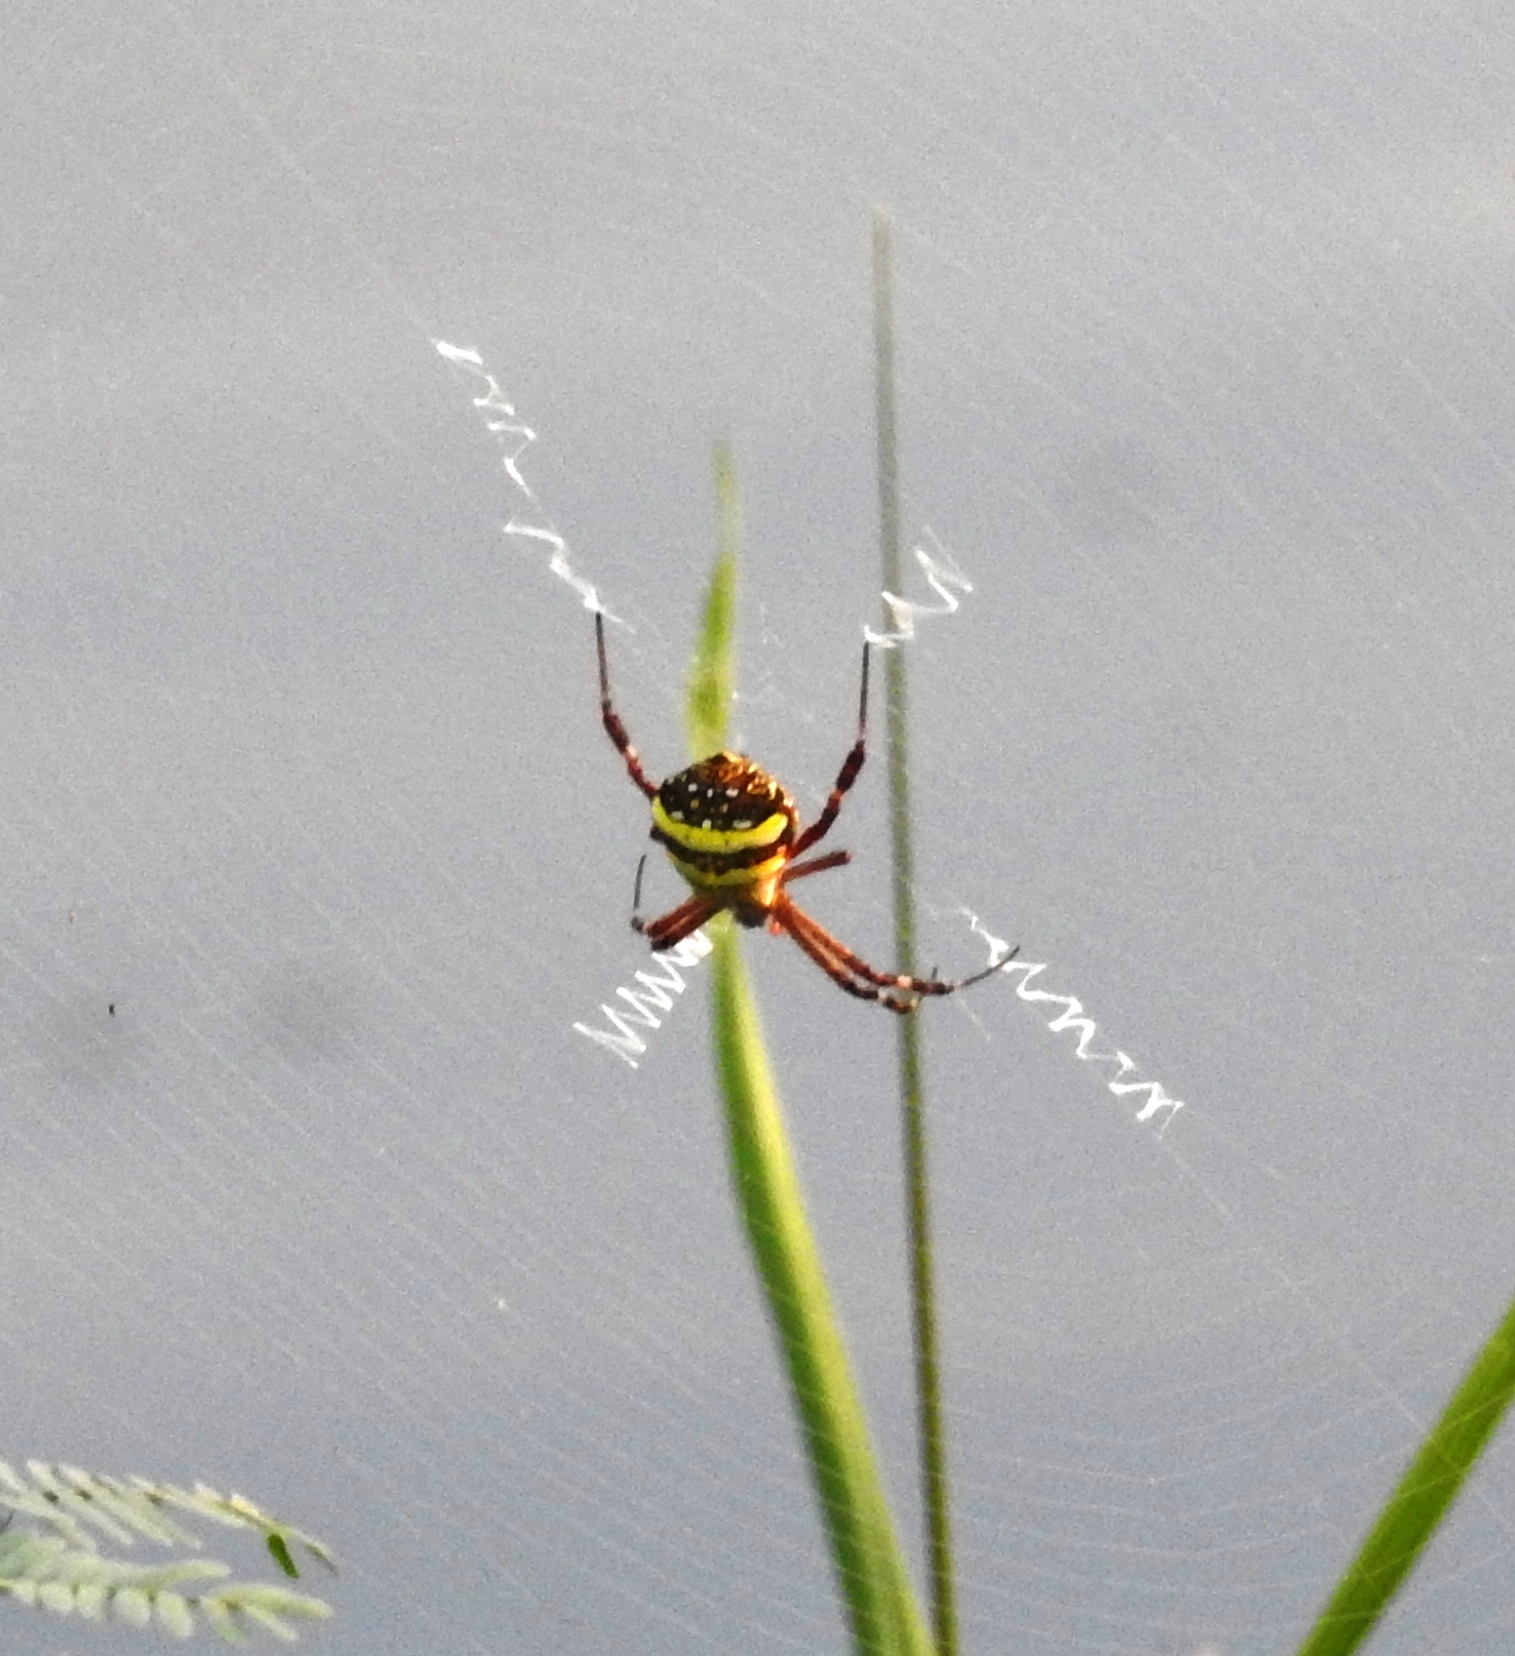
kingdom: Animalia
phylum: Arthropoda
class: Arachnida
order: Araneae
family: Araneidae
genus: Argiope
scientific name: Argiope anasuja
